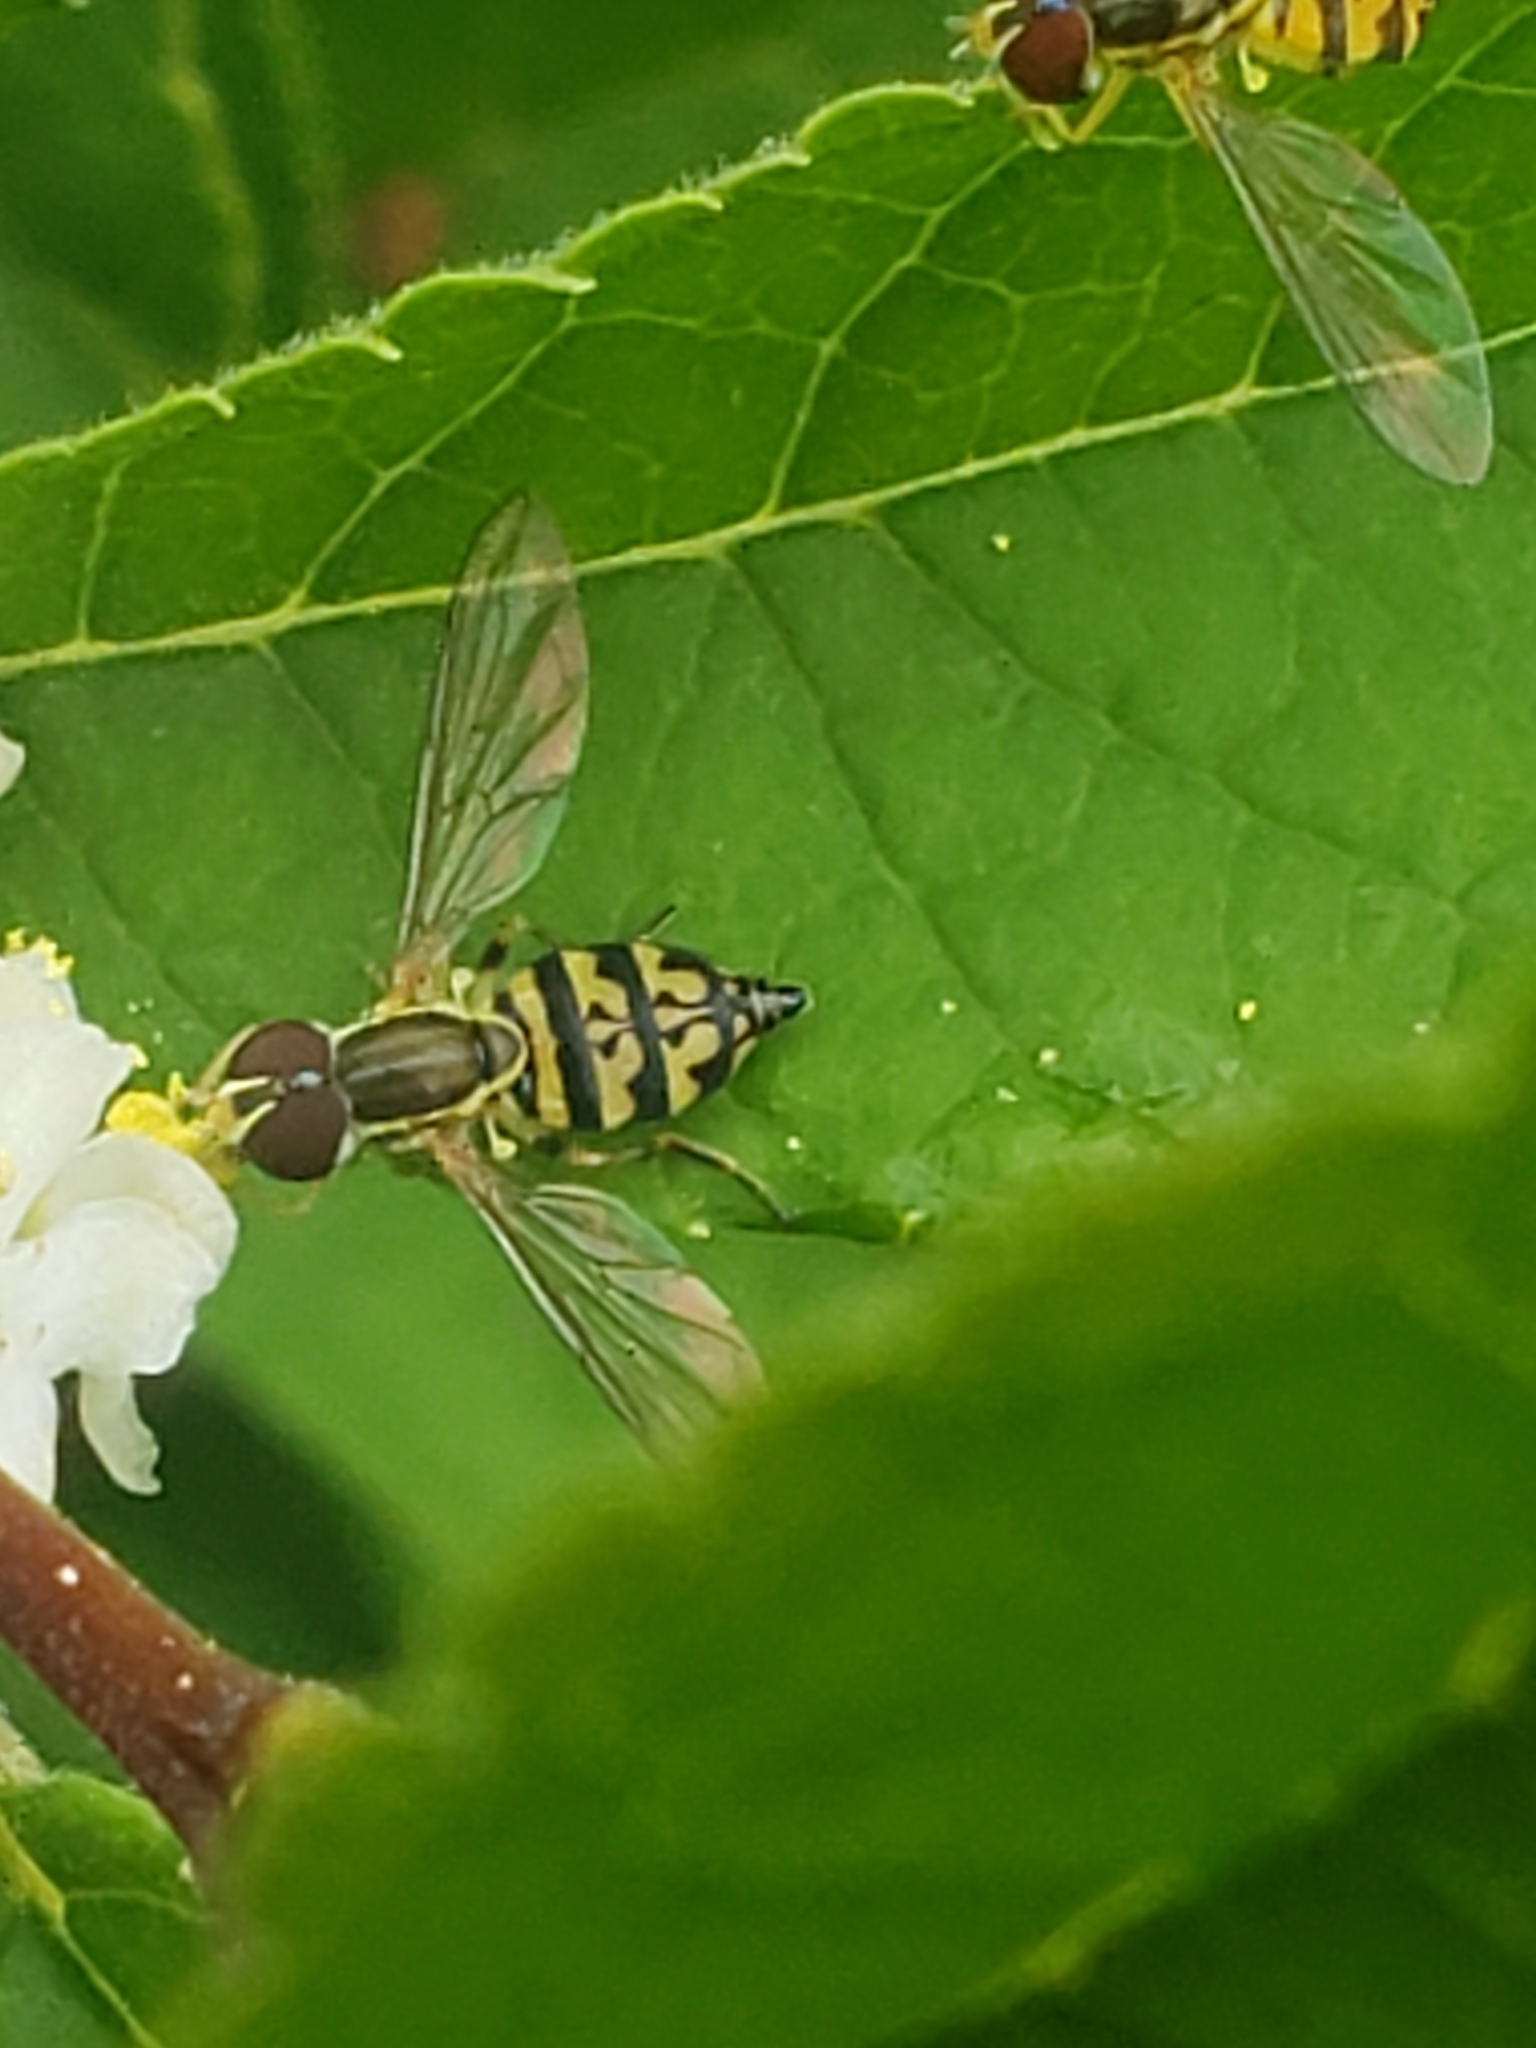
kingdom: Animalia
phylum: Arthropoda
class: Insecta
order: Diptera
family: Syrphidae
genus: Toxomerus
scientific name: Toxomerus geminatus
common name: Eastern calligrapher
